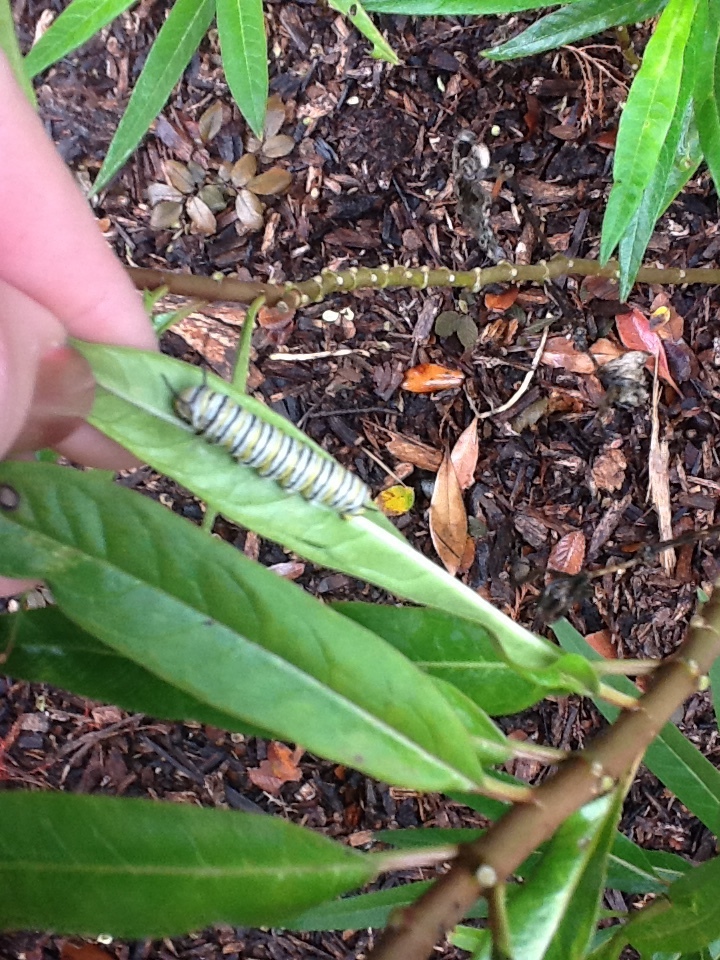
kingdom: Animalia
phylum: Arthropoda
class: Insecta
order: Lepidoptera
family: Nymphalidae
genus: Danaus
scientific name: Danaus plexippus
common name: Monarch
